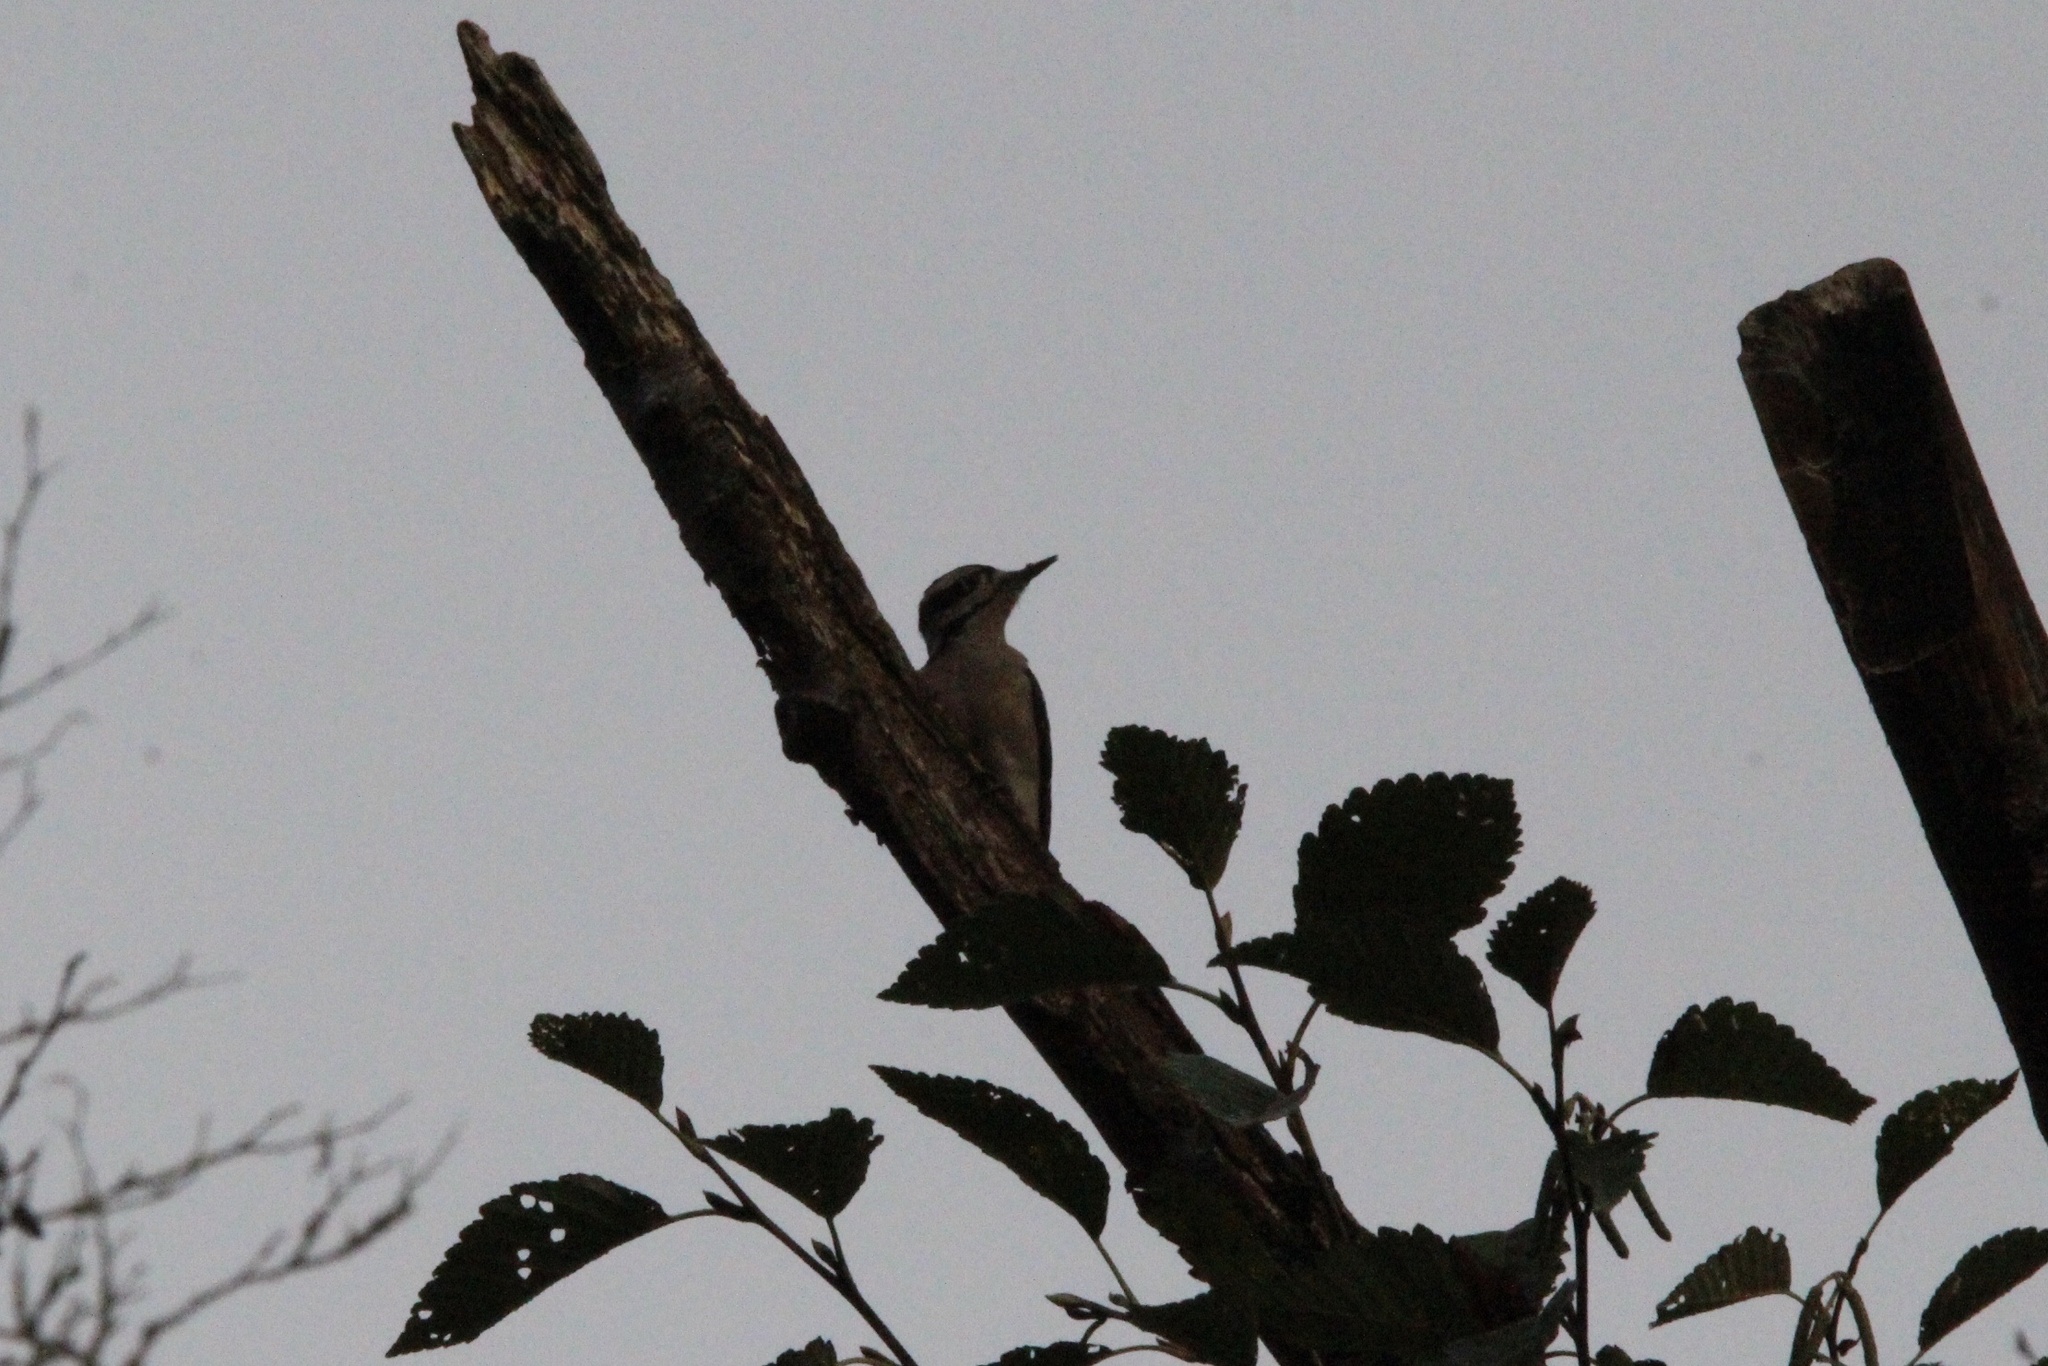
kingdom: Animalia
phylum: Chordata
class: Aves
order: Piciformes
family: Picidae
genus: Leuconotopicus
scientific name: Leuconotopicus villosus
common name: Hairy woodpecker
